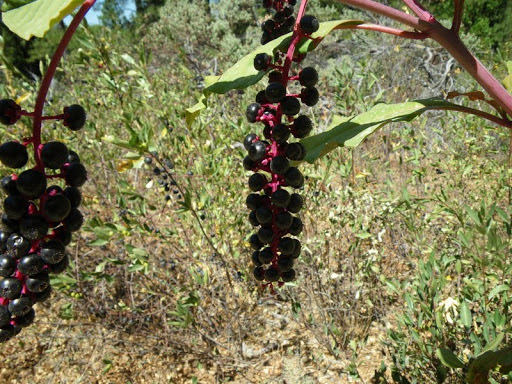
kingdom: Plantae
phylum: Tracheophyta
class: Magnoliopsida
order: Caryophyllales
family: Phytolaccaceae
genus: Phytolacca
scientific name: Phytolacca americana
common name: American pokeweed
